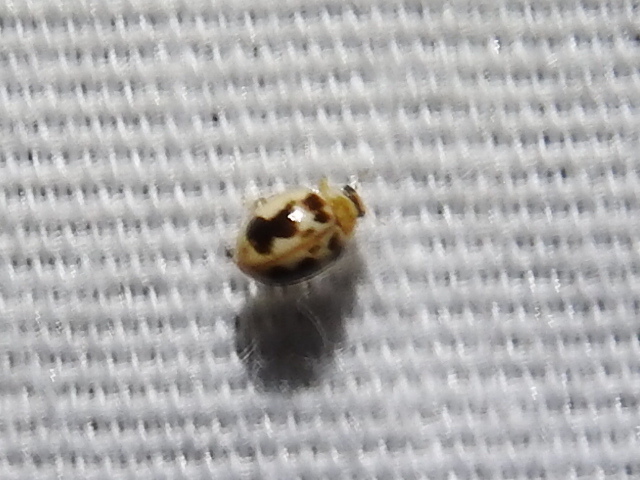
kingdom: Animalia
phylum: Arthropoda
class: Insecta
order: Coleoptera
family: Coccinellidae
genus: Psyllobora
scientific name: Psyllobora renifer
